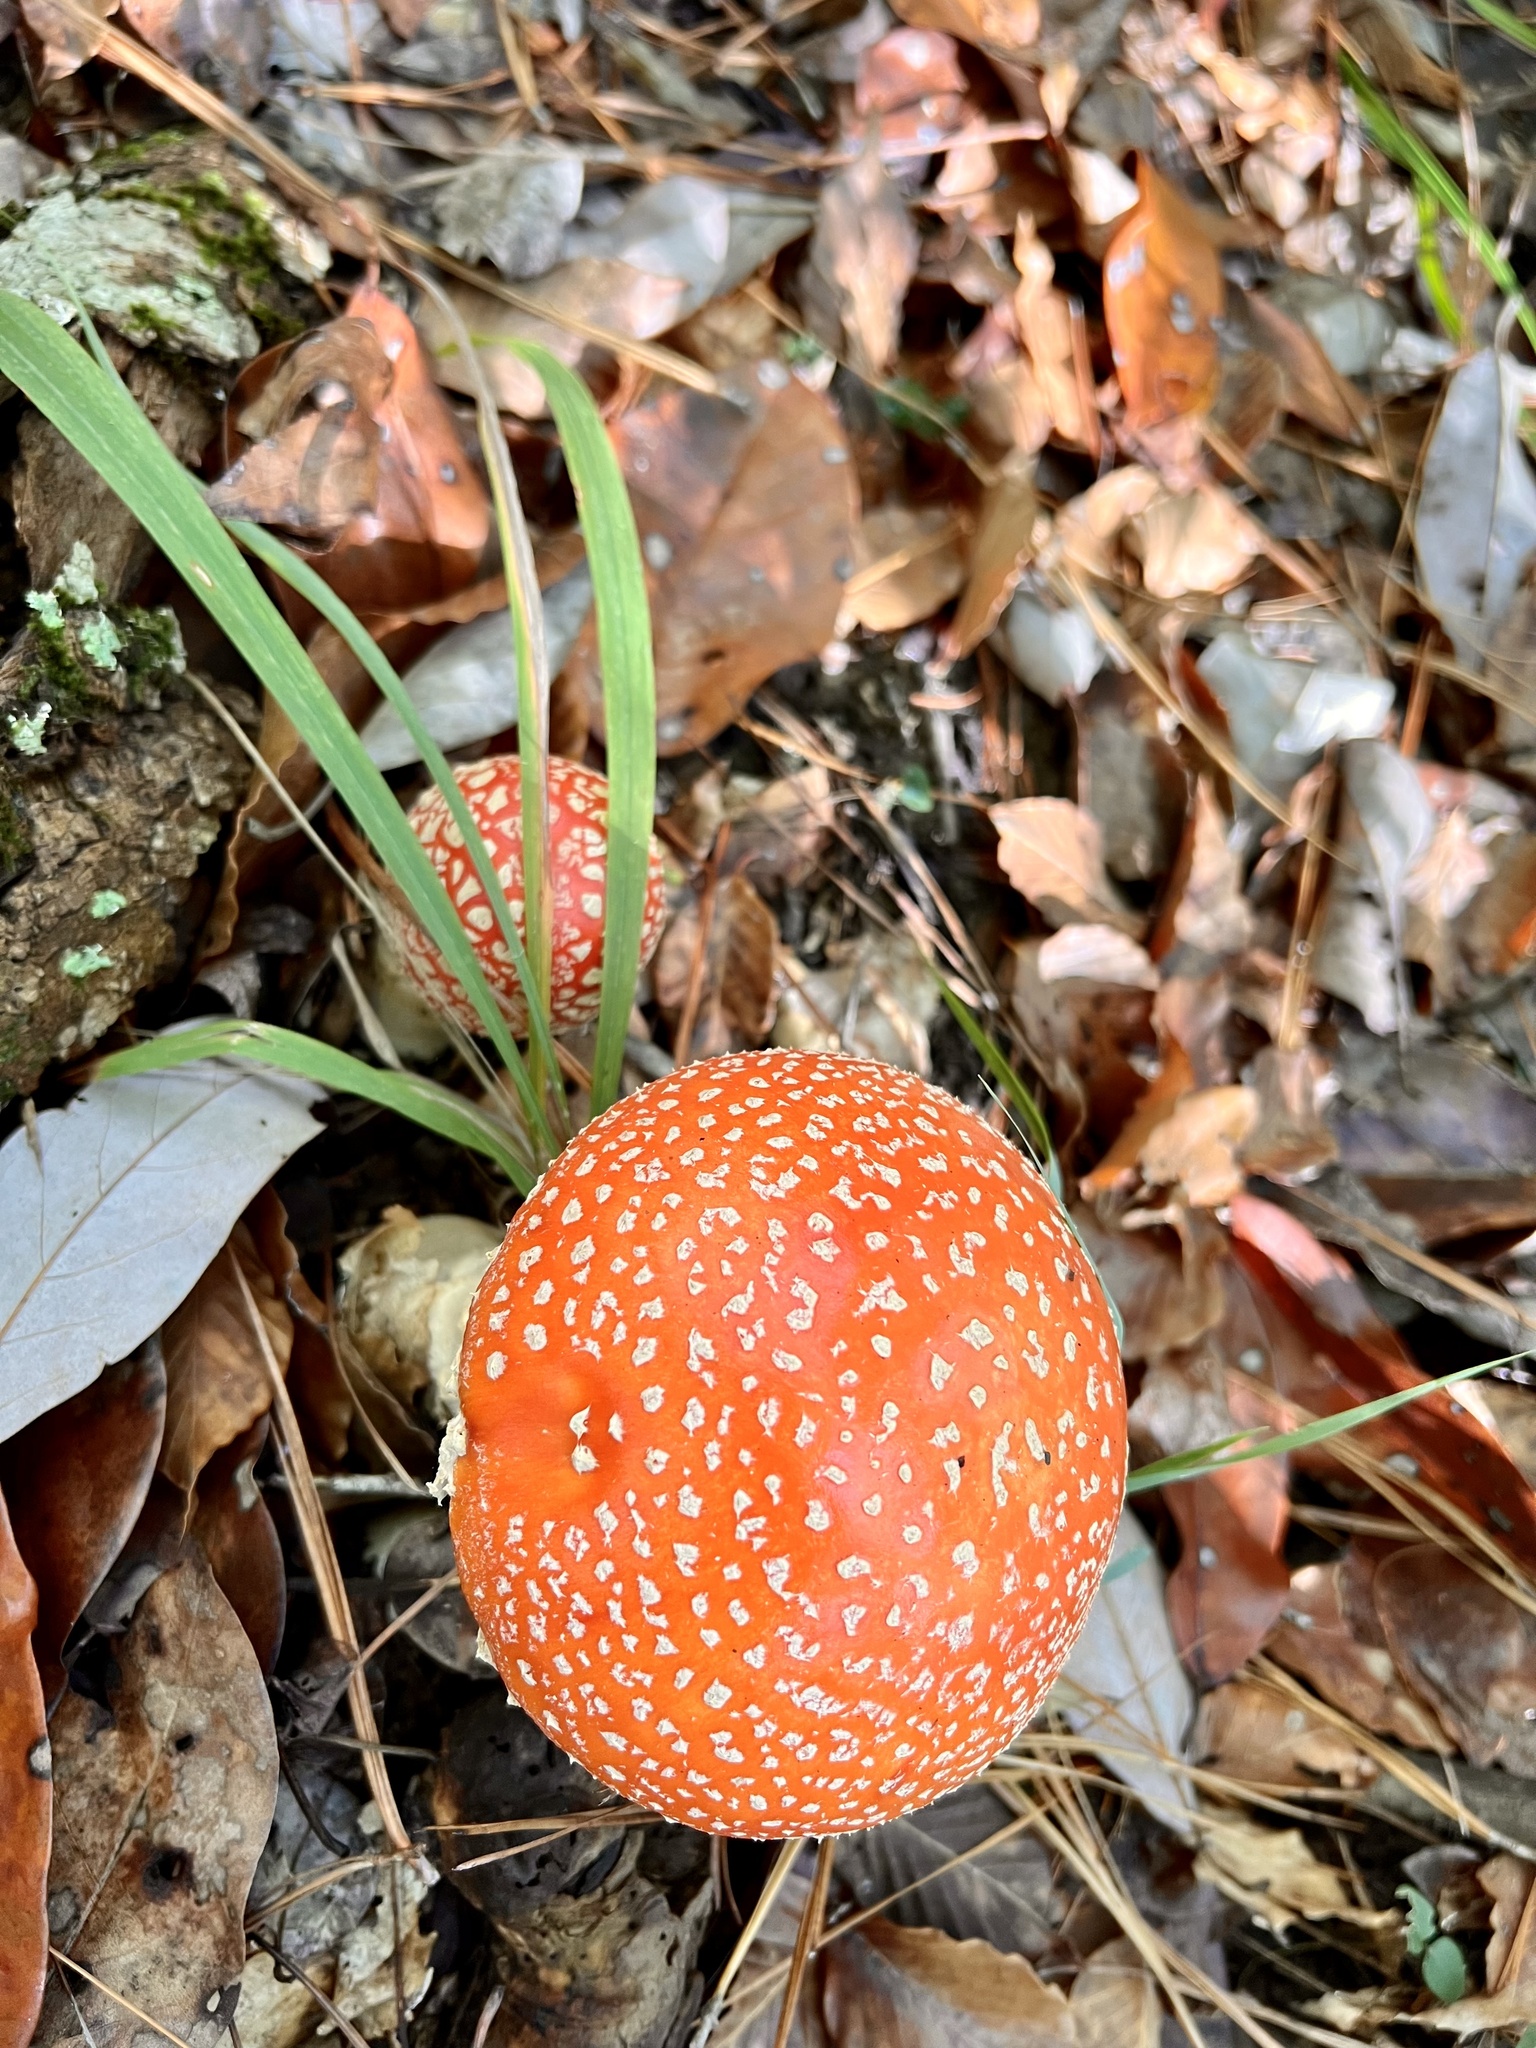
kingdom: Fungi
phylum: Basidiomycota
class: Agaricomycetes
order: Agaricales
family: Amanitaceae
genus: Amanita
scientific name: Amanita persicina
